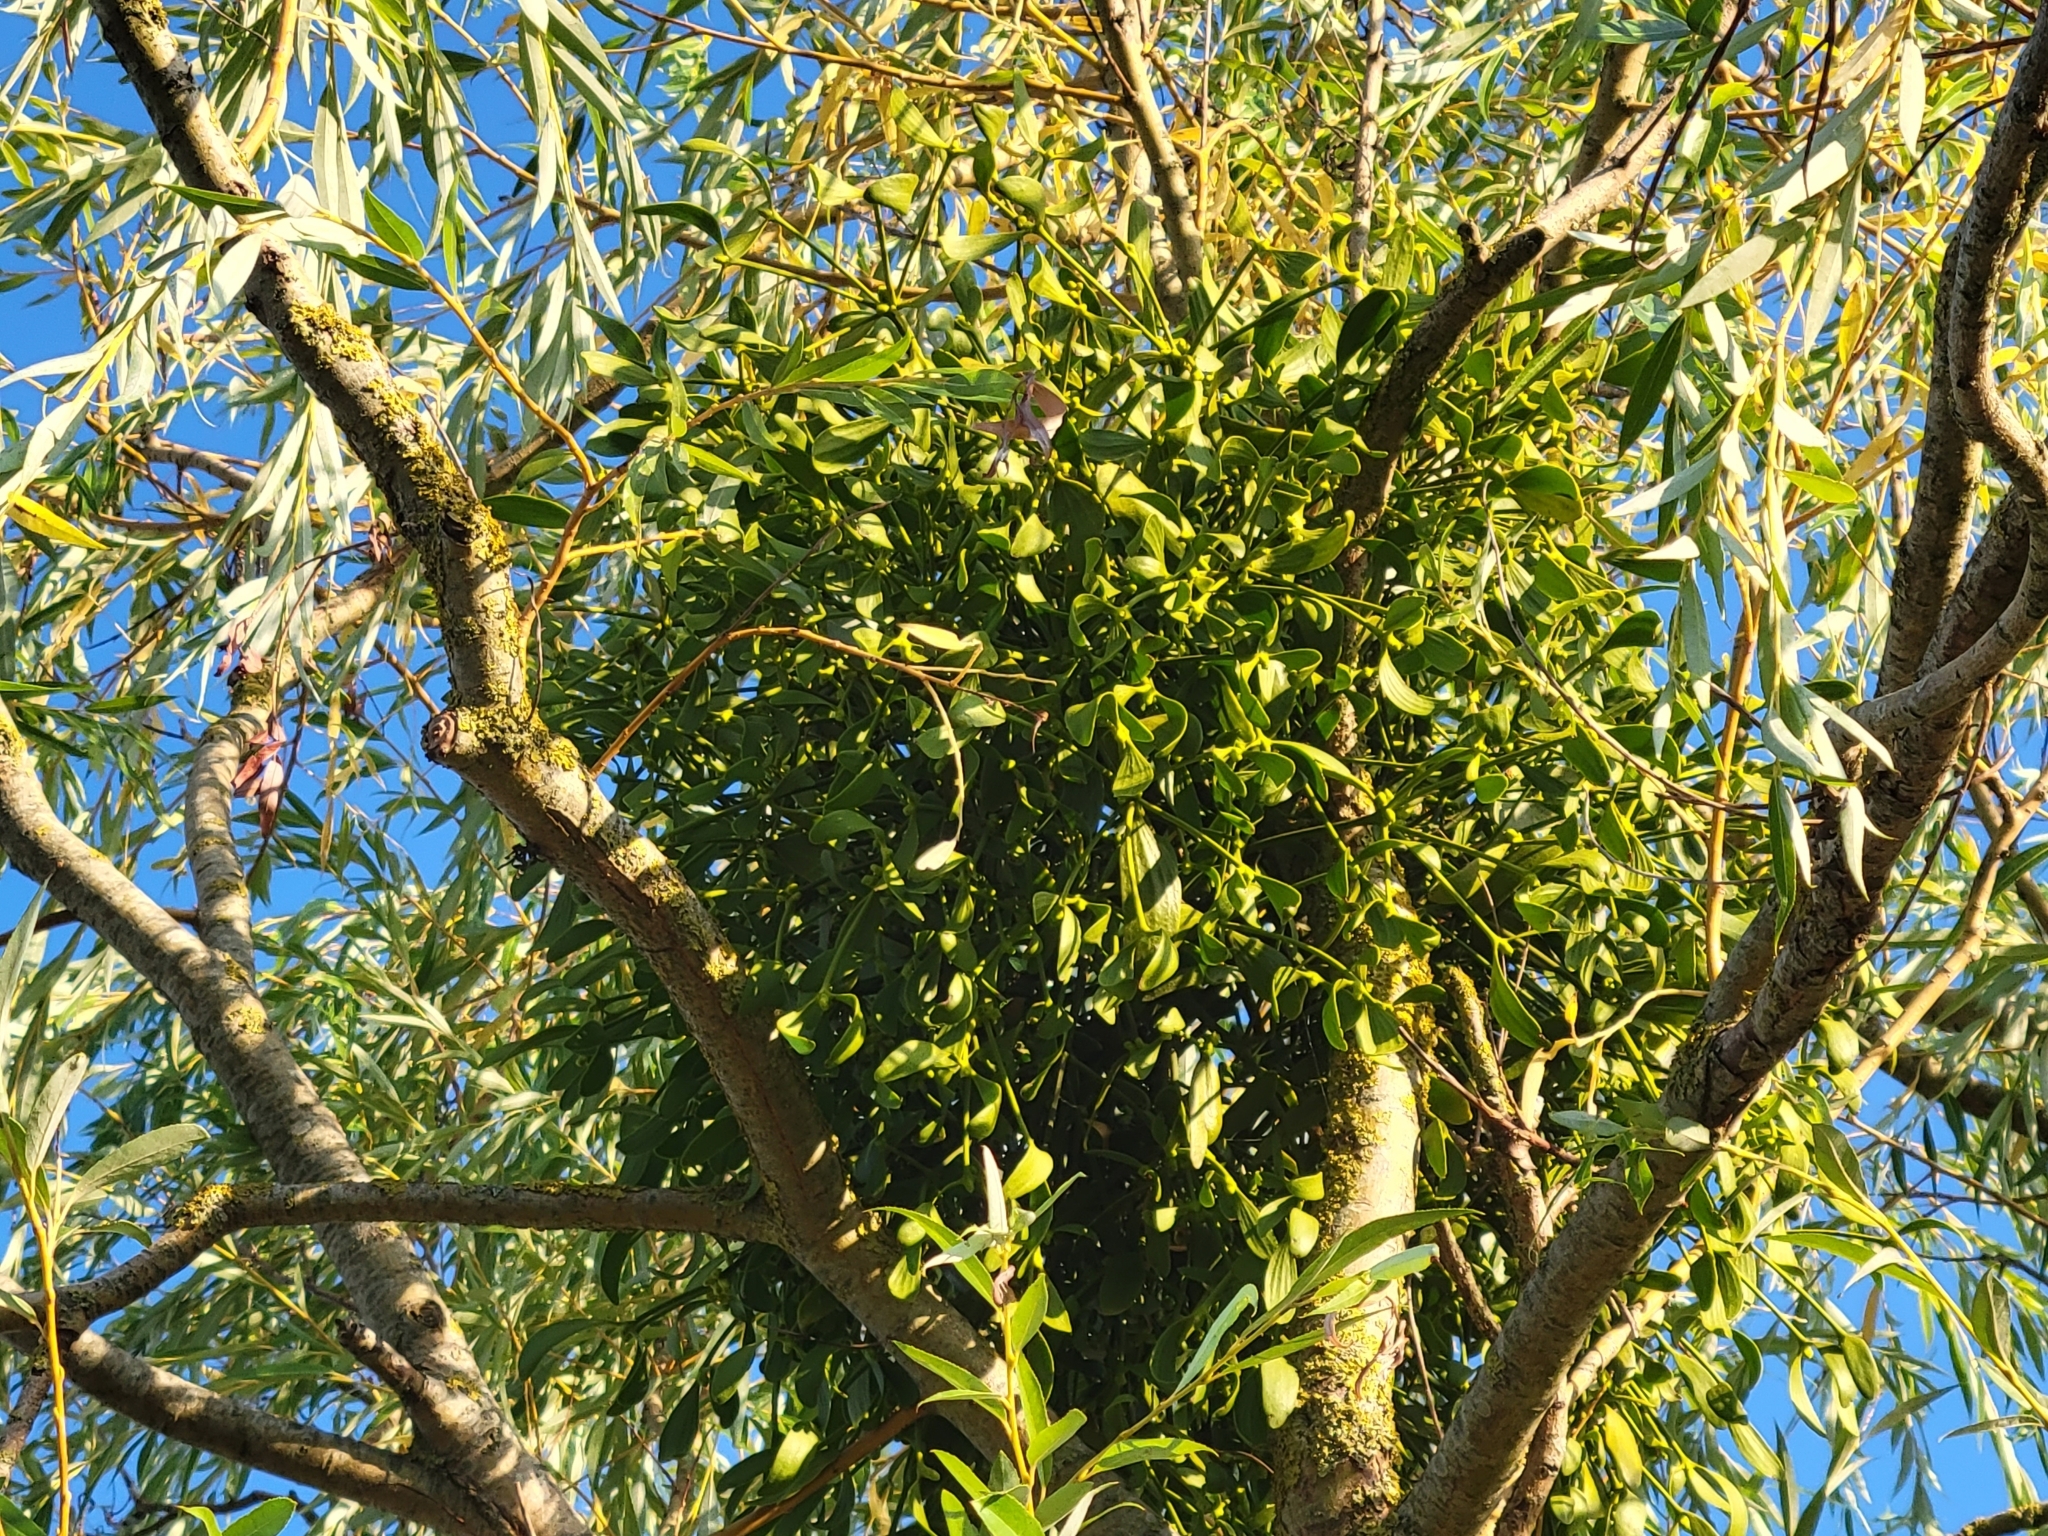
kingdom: Plantae
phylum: Tracheophyta
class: Magnoliopsida
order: Santalales
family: Viscaceae
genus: Viscum
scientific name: Viscum album
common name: Mistletoe
